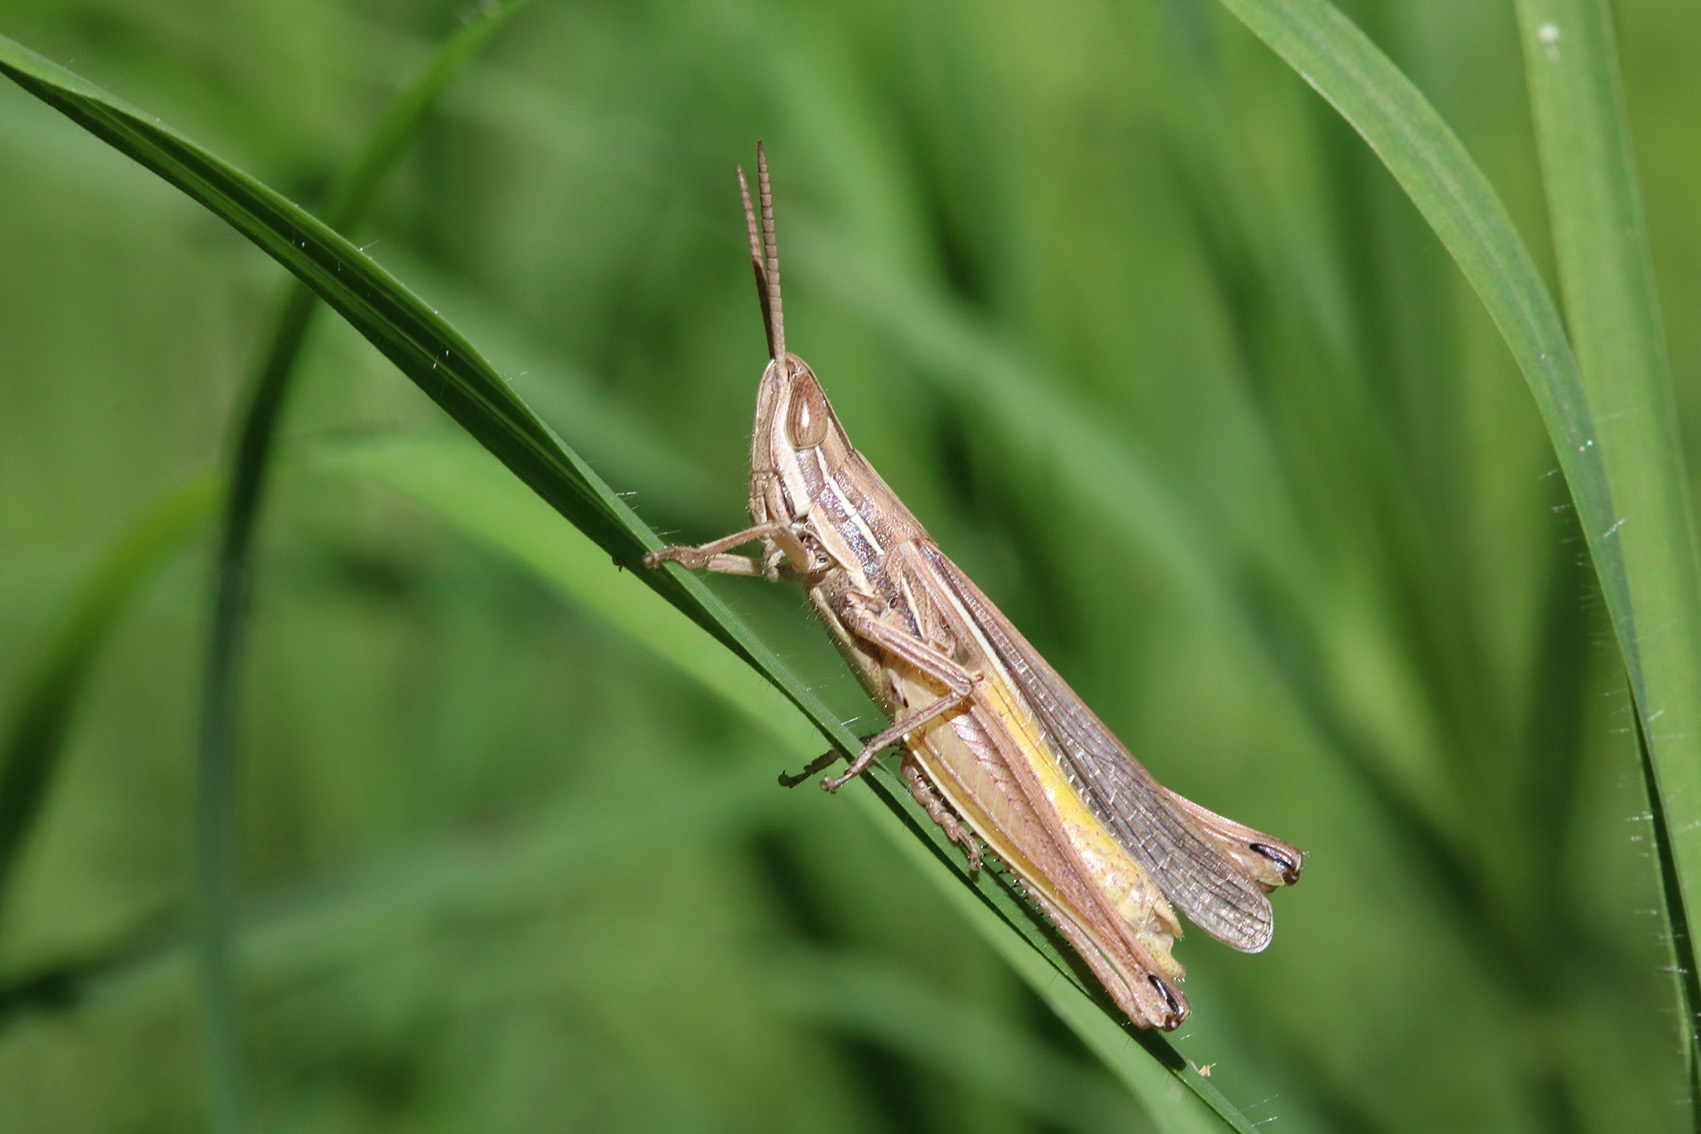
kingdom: Animalia
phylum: Arthropoda
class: Insecta
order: Orthoptera
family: Acrididae
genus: Sinipta
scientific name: Sinipta dalmani
